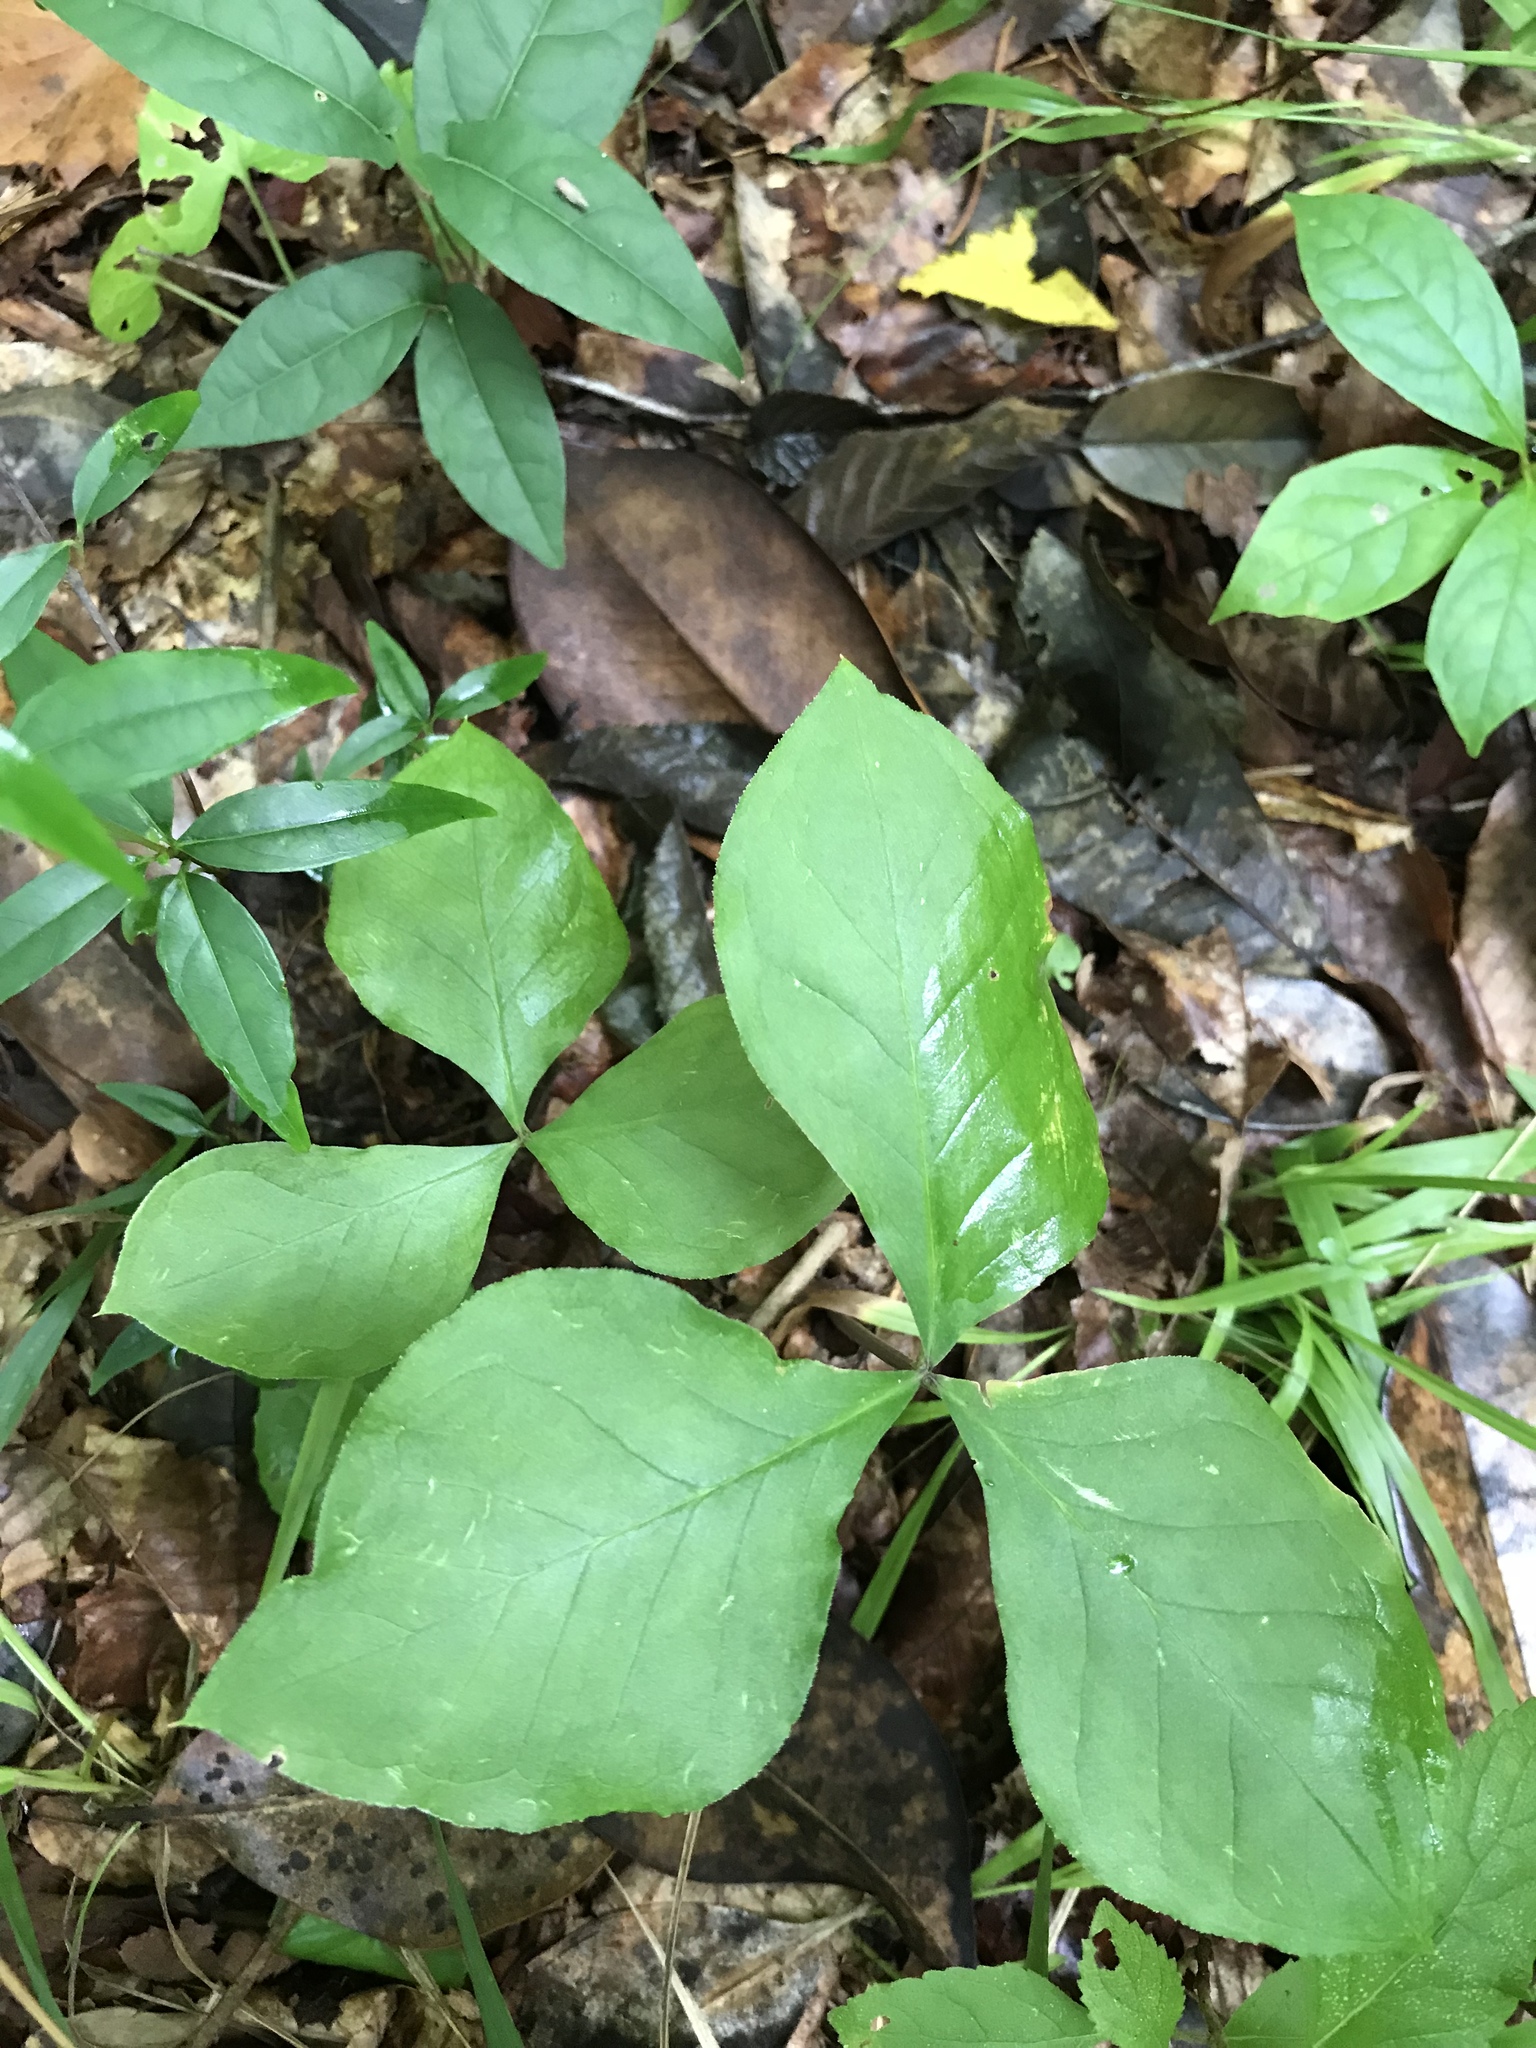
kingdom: Plantae
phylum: Tracheophyta
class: Liliopsida
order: Alismatales
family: Araceae
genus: Arisaema
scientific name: Arisaema triphyllum
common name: Jack-in-the-pulpit
